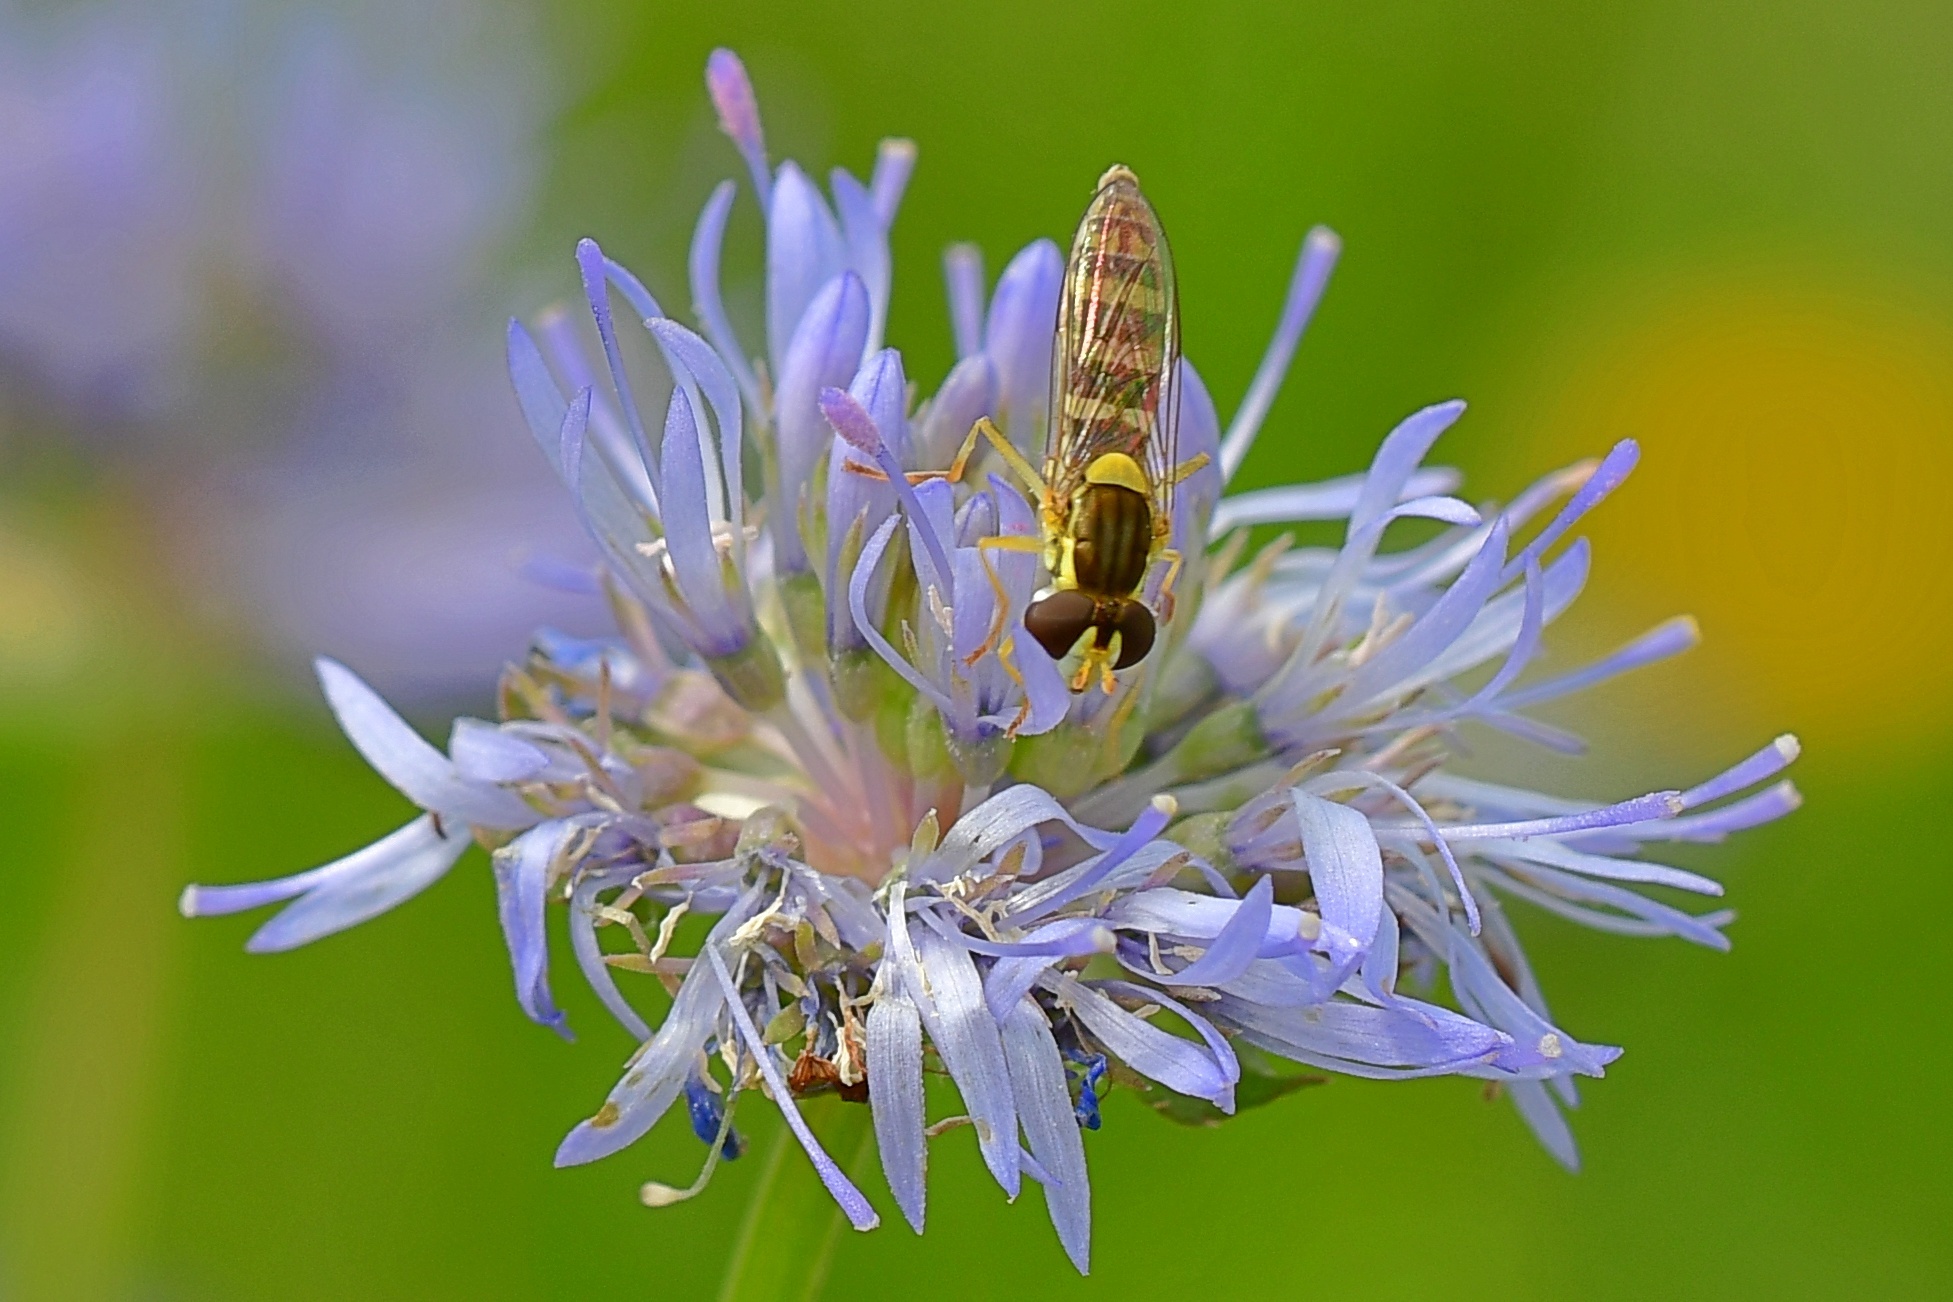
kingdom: Animalia
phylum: Arthropoda
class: Insecta
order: Diptera
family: Syrphidae
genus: Sphaerophoria
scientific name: Sphaerophoria
